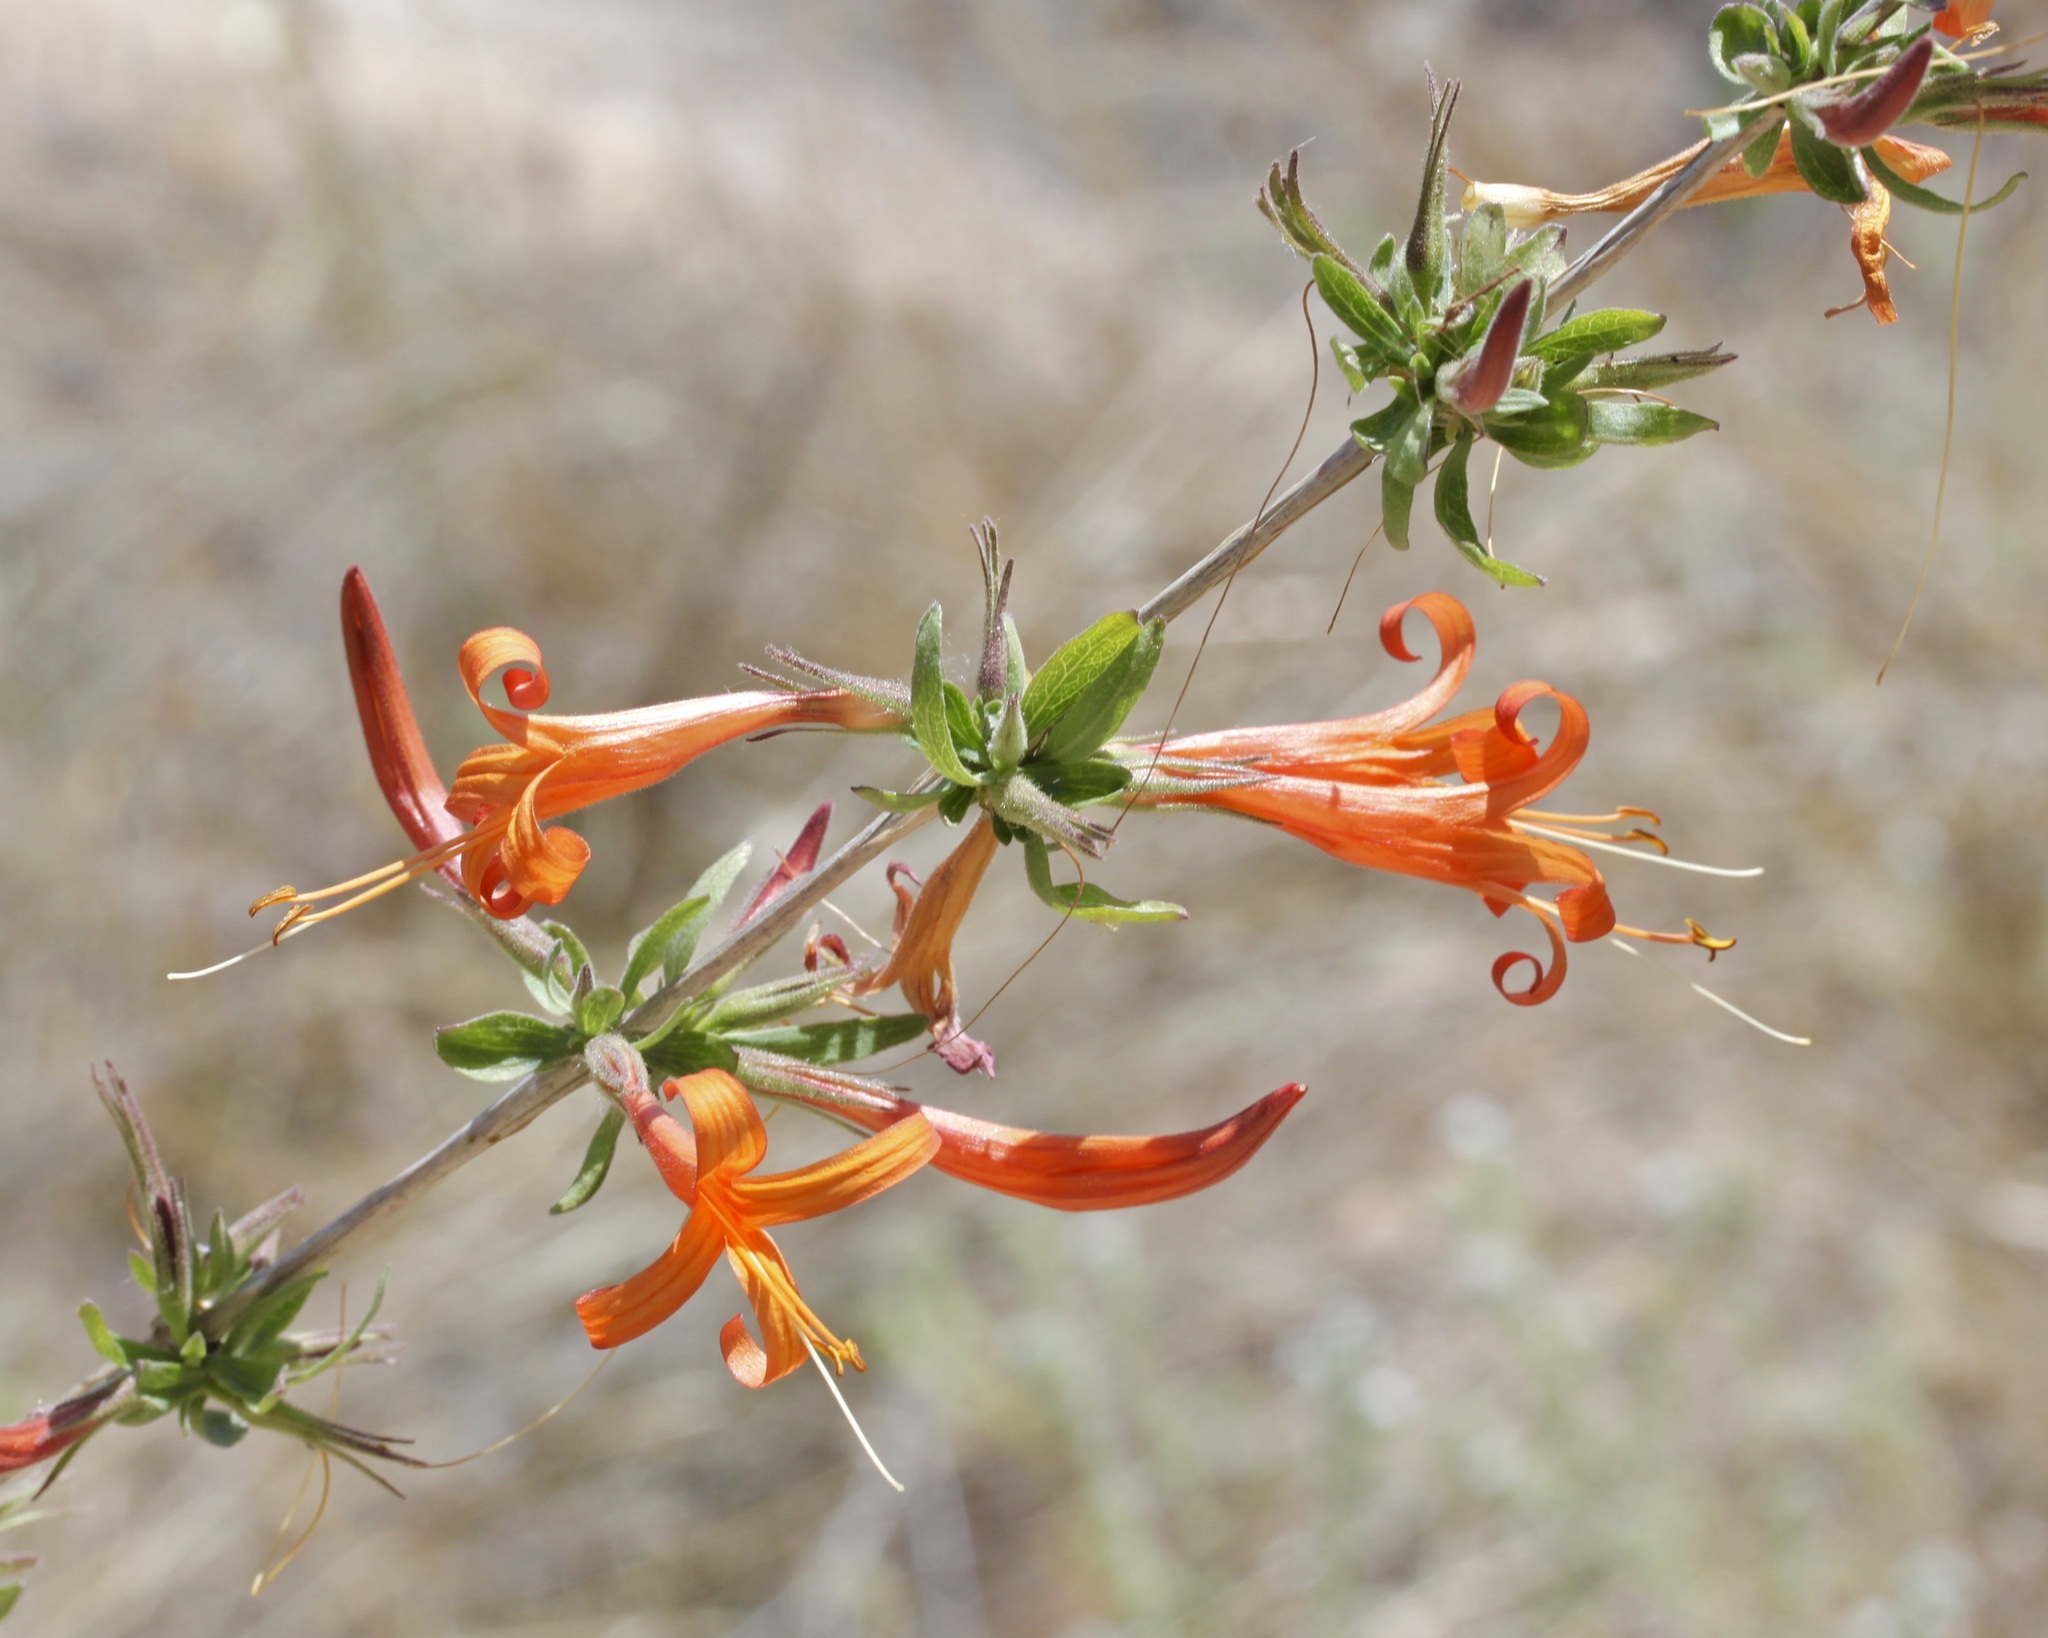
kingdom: Plantae
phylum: Tracheophyta
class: Magnoliopsida
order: Lamiales
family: Acanthaceae
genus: Anisacanthus
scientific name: Anisacanthus thurberi
